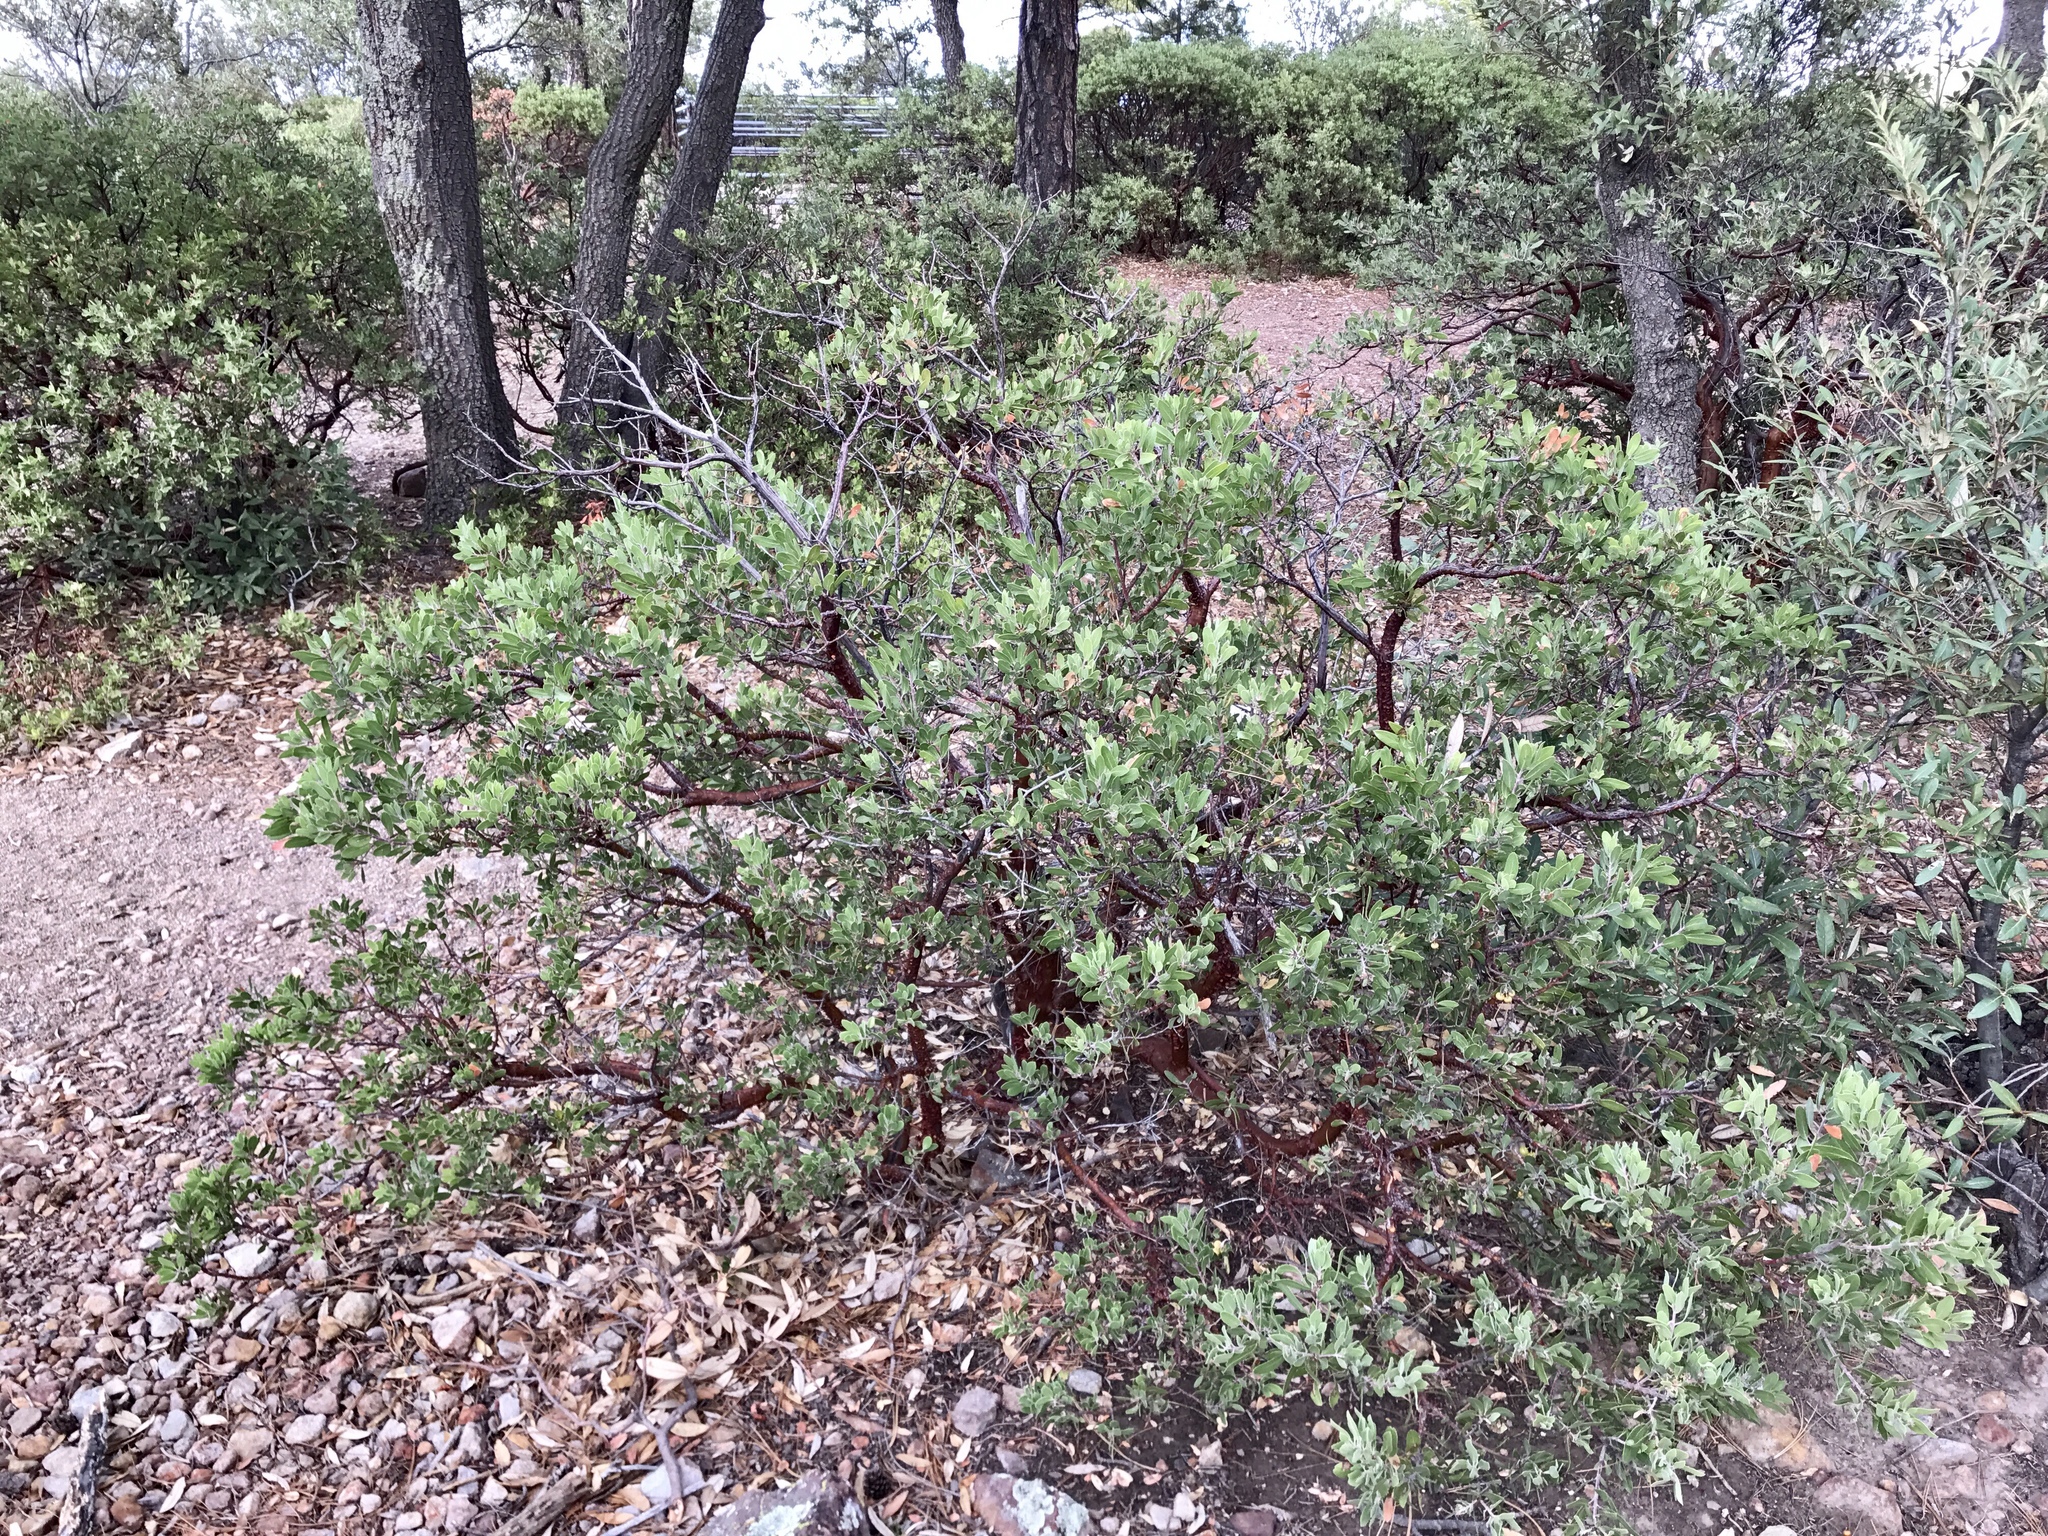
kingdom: Plantae
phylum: Tracheophyta
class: Magnoliopsida
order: Ericales
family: Ericaceae
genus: Arctostaphylos
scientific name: Arctostaphylos pungens
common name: Mexican manzanita
